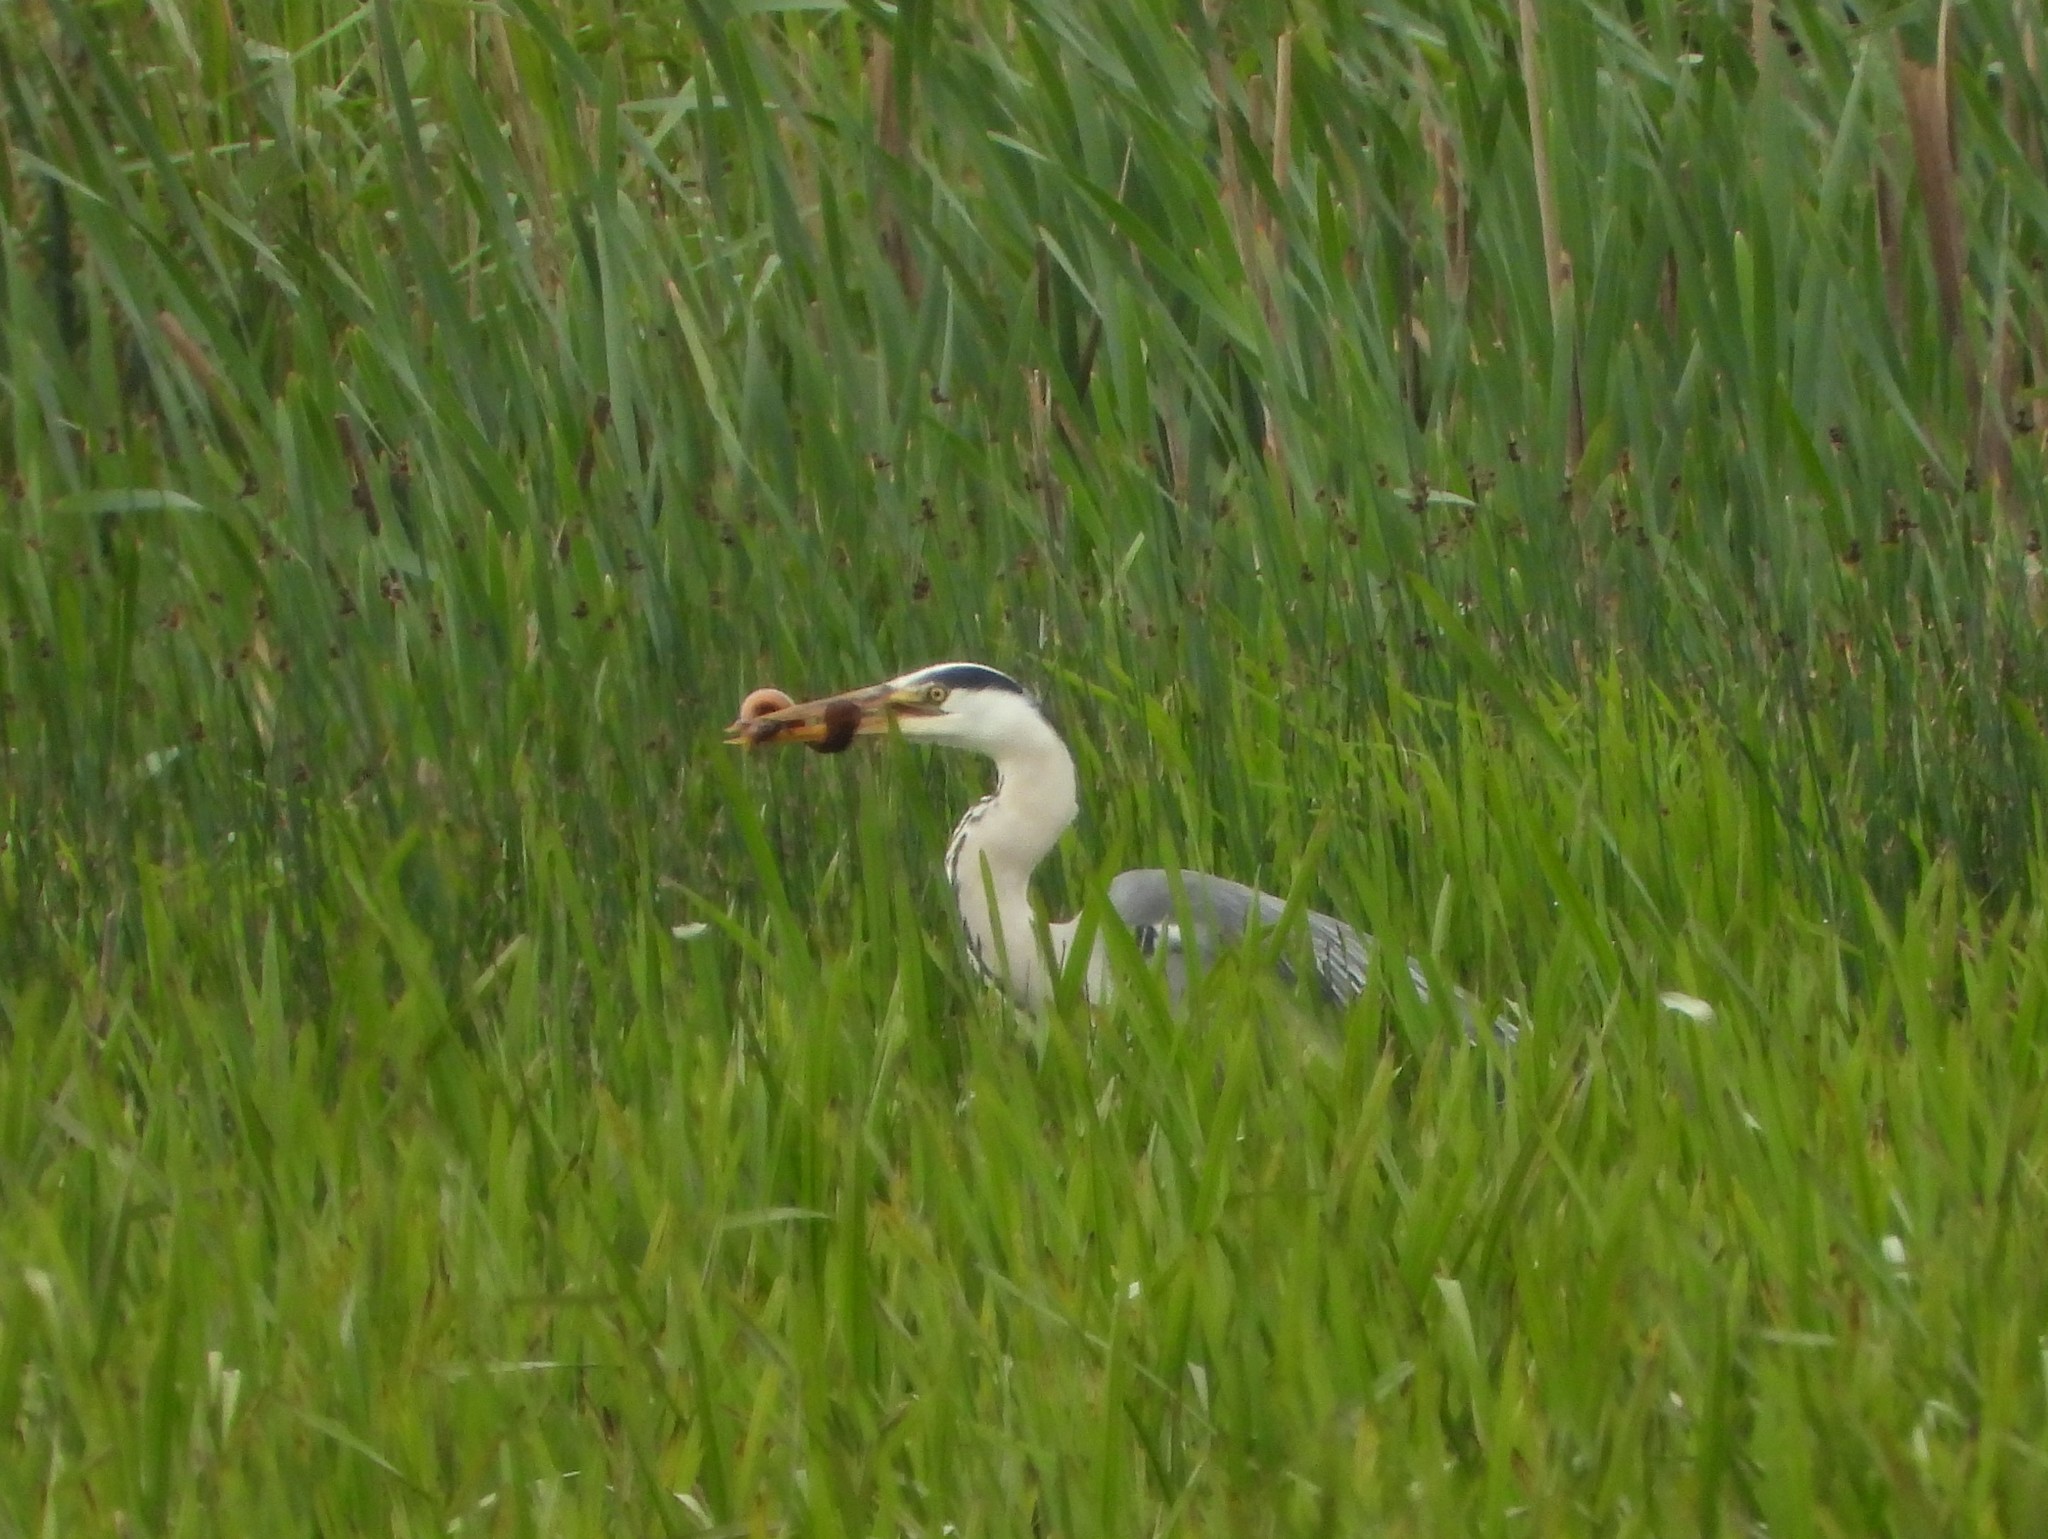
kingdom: Animalia
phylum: Chordata
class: Aves
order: Pelecaniformes
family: Ardeidae
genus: Ardea
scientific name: Ardea cinerea
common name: Grey heron
